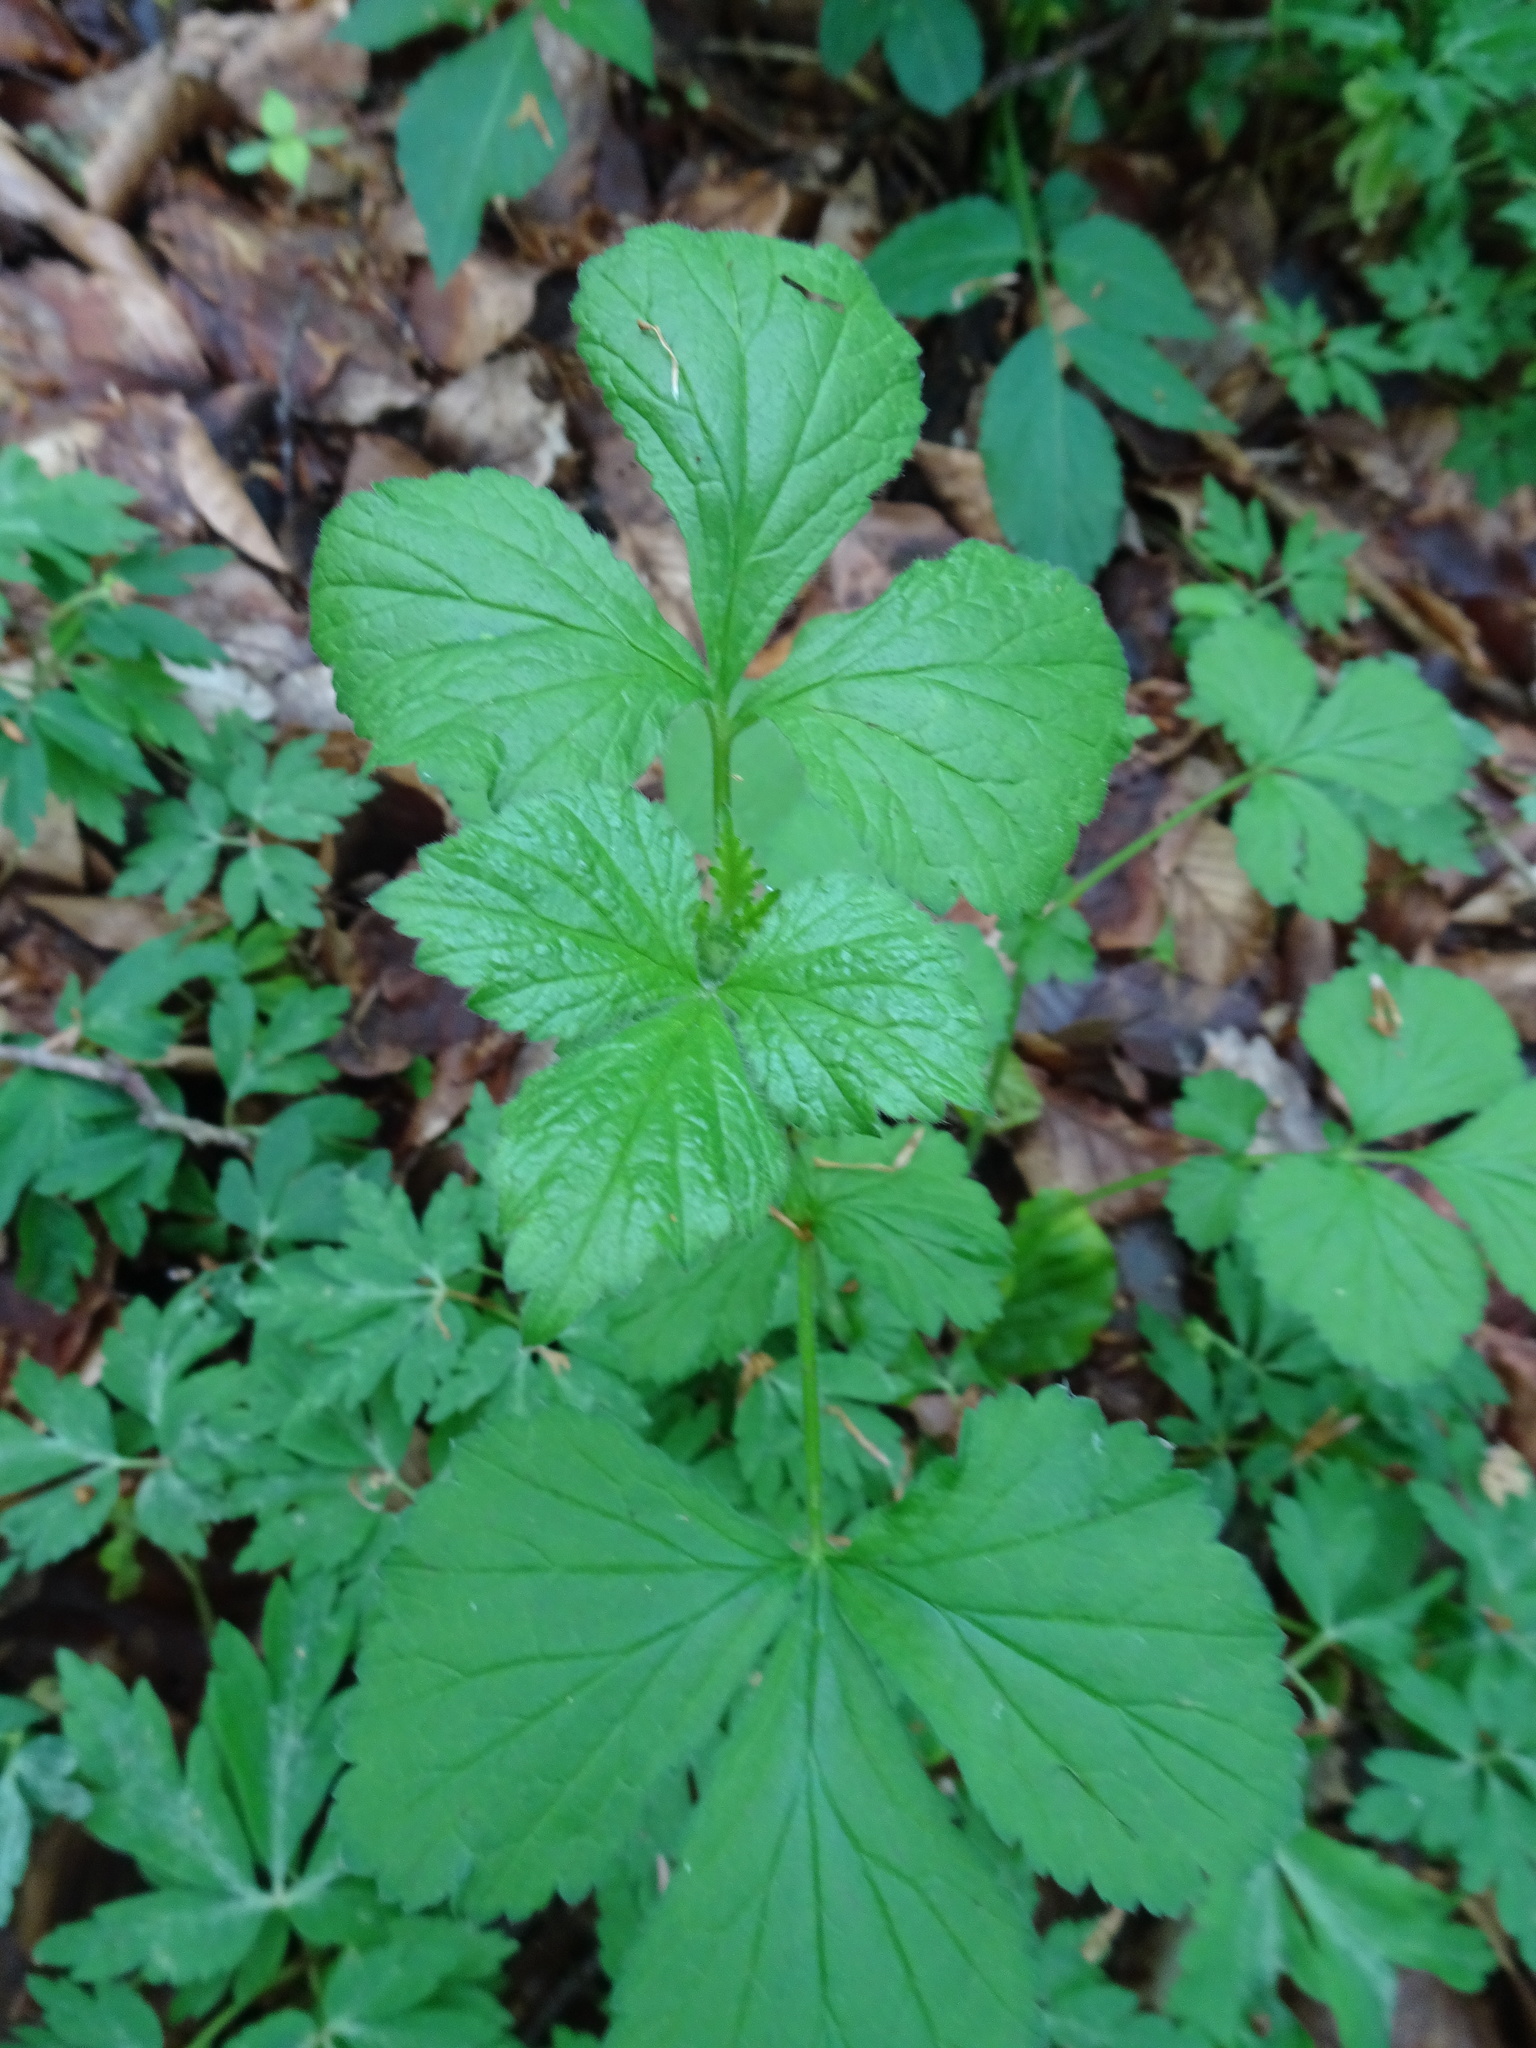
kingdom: Plantae
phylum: Tracheophyta
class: Magnoliopsida
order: Rosales
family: Rosaceae
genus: Geum
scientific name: Geum urbanum
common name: Wood avens
